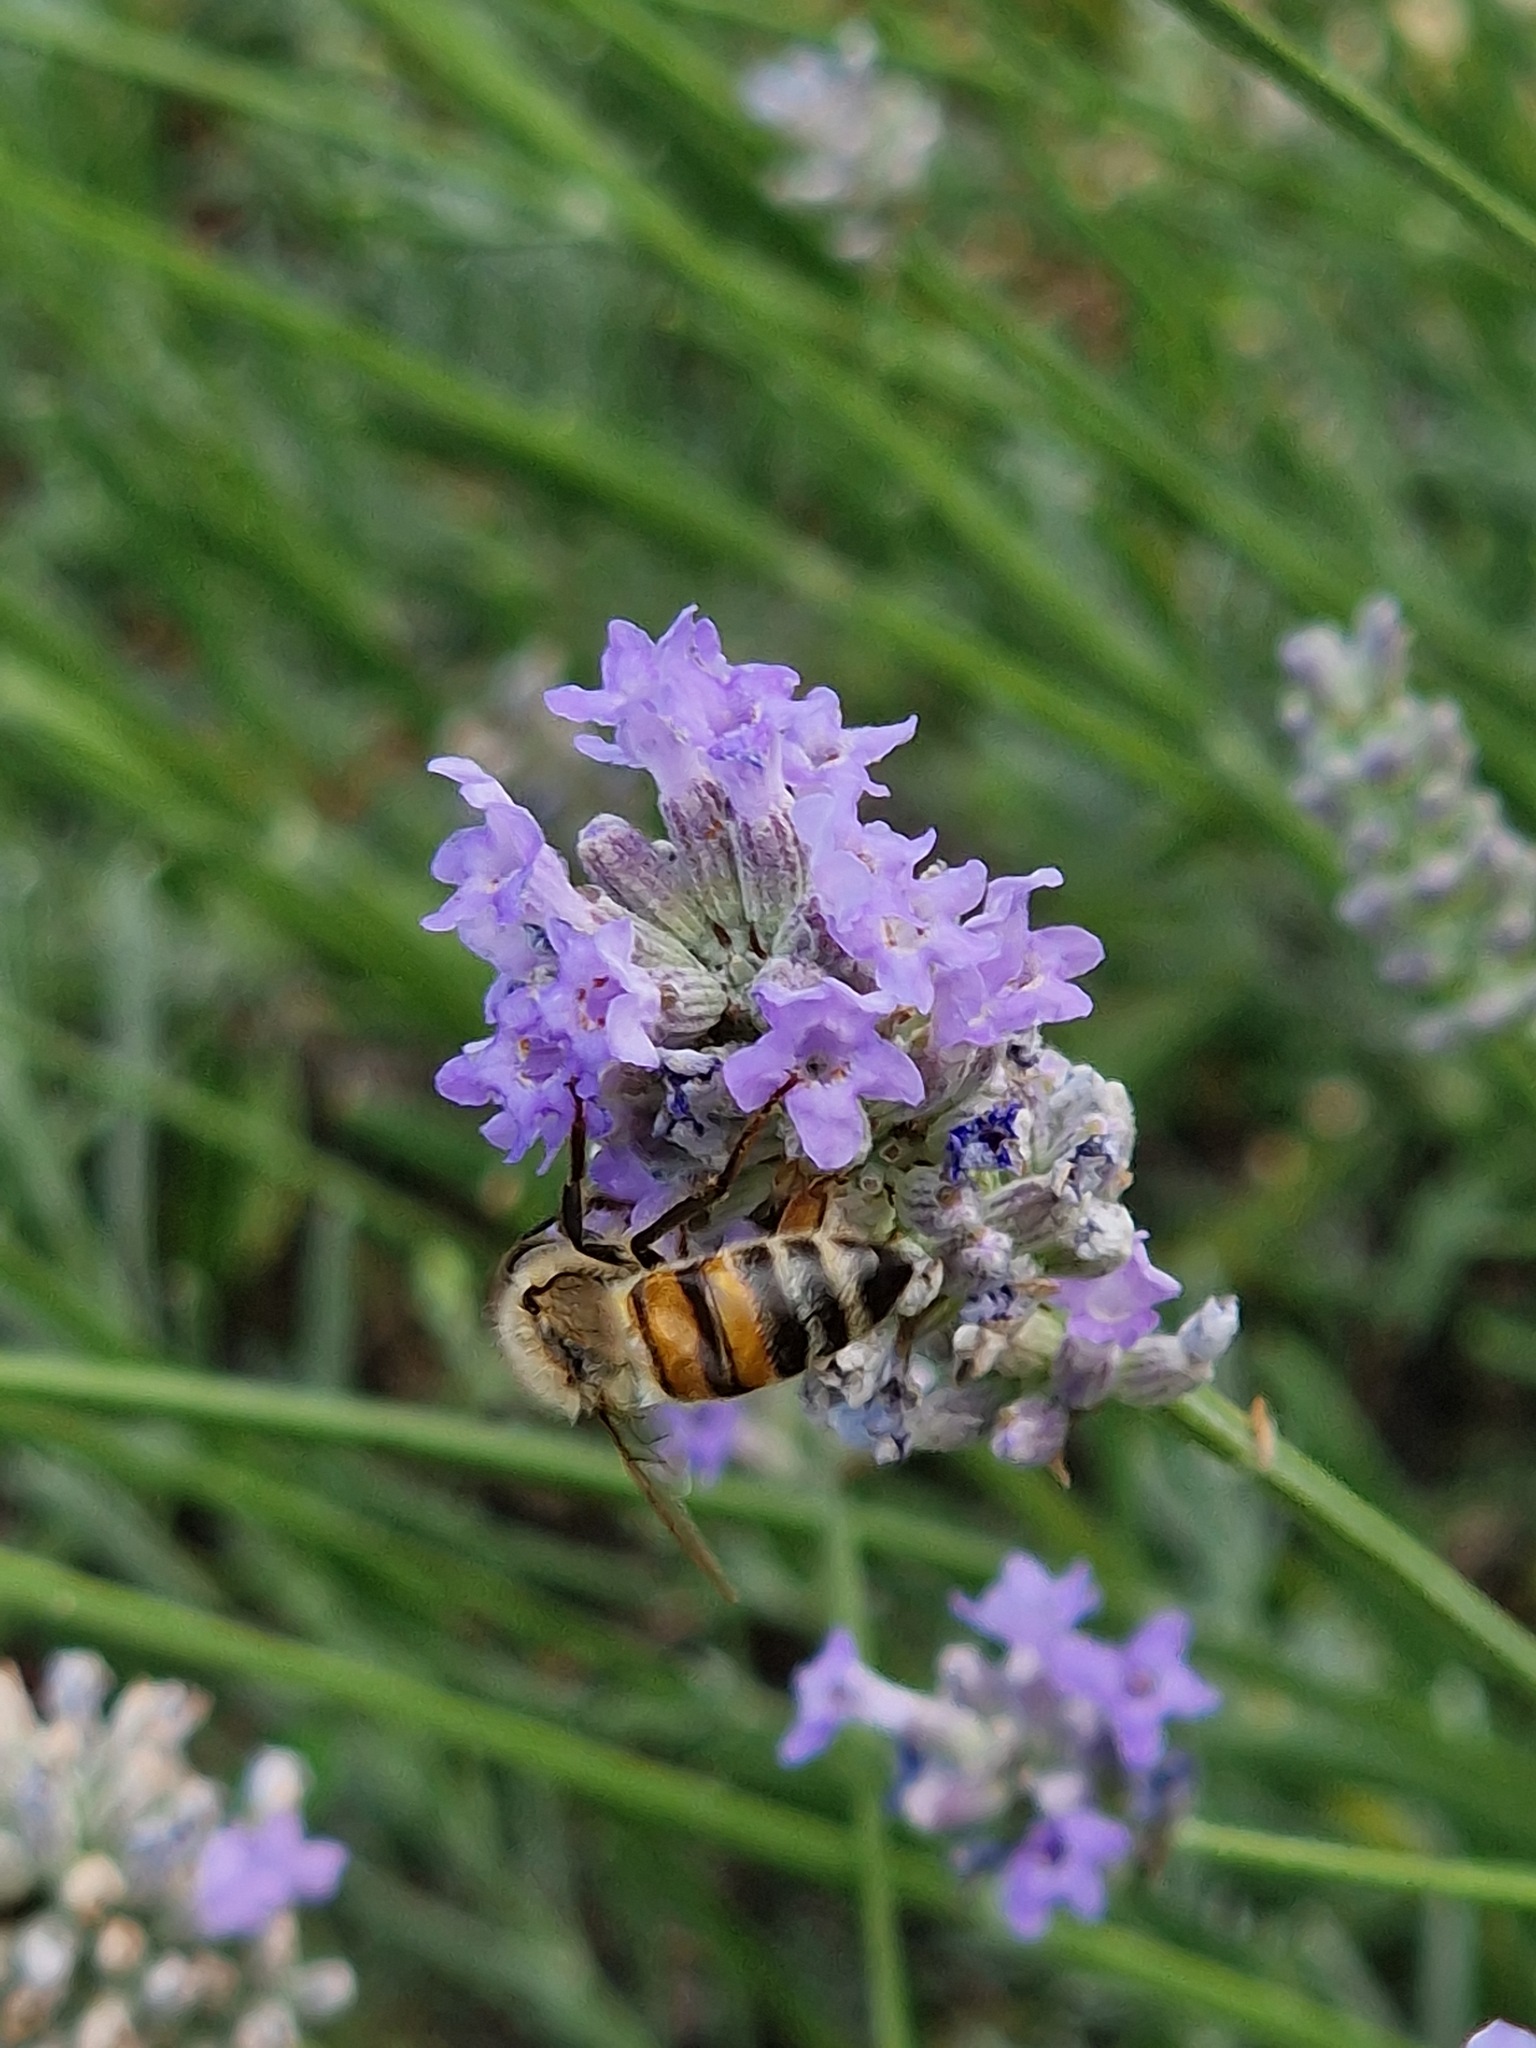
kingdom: Animalia
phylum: Arthropoda
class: Insecta
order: Hymenoptera
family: Apidae
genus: Apis
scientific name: Apis mellifera
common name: Honey bee
